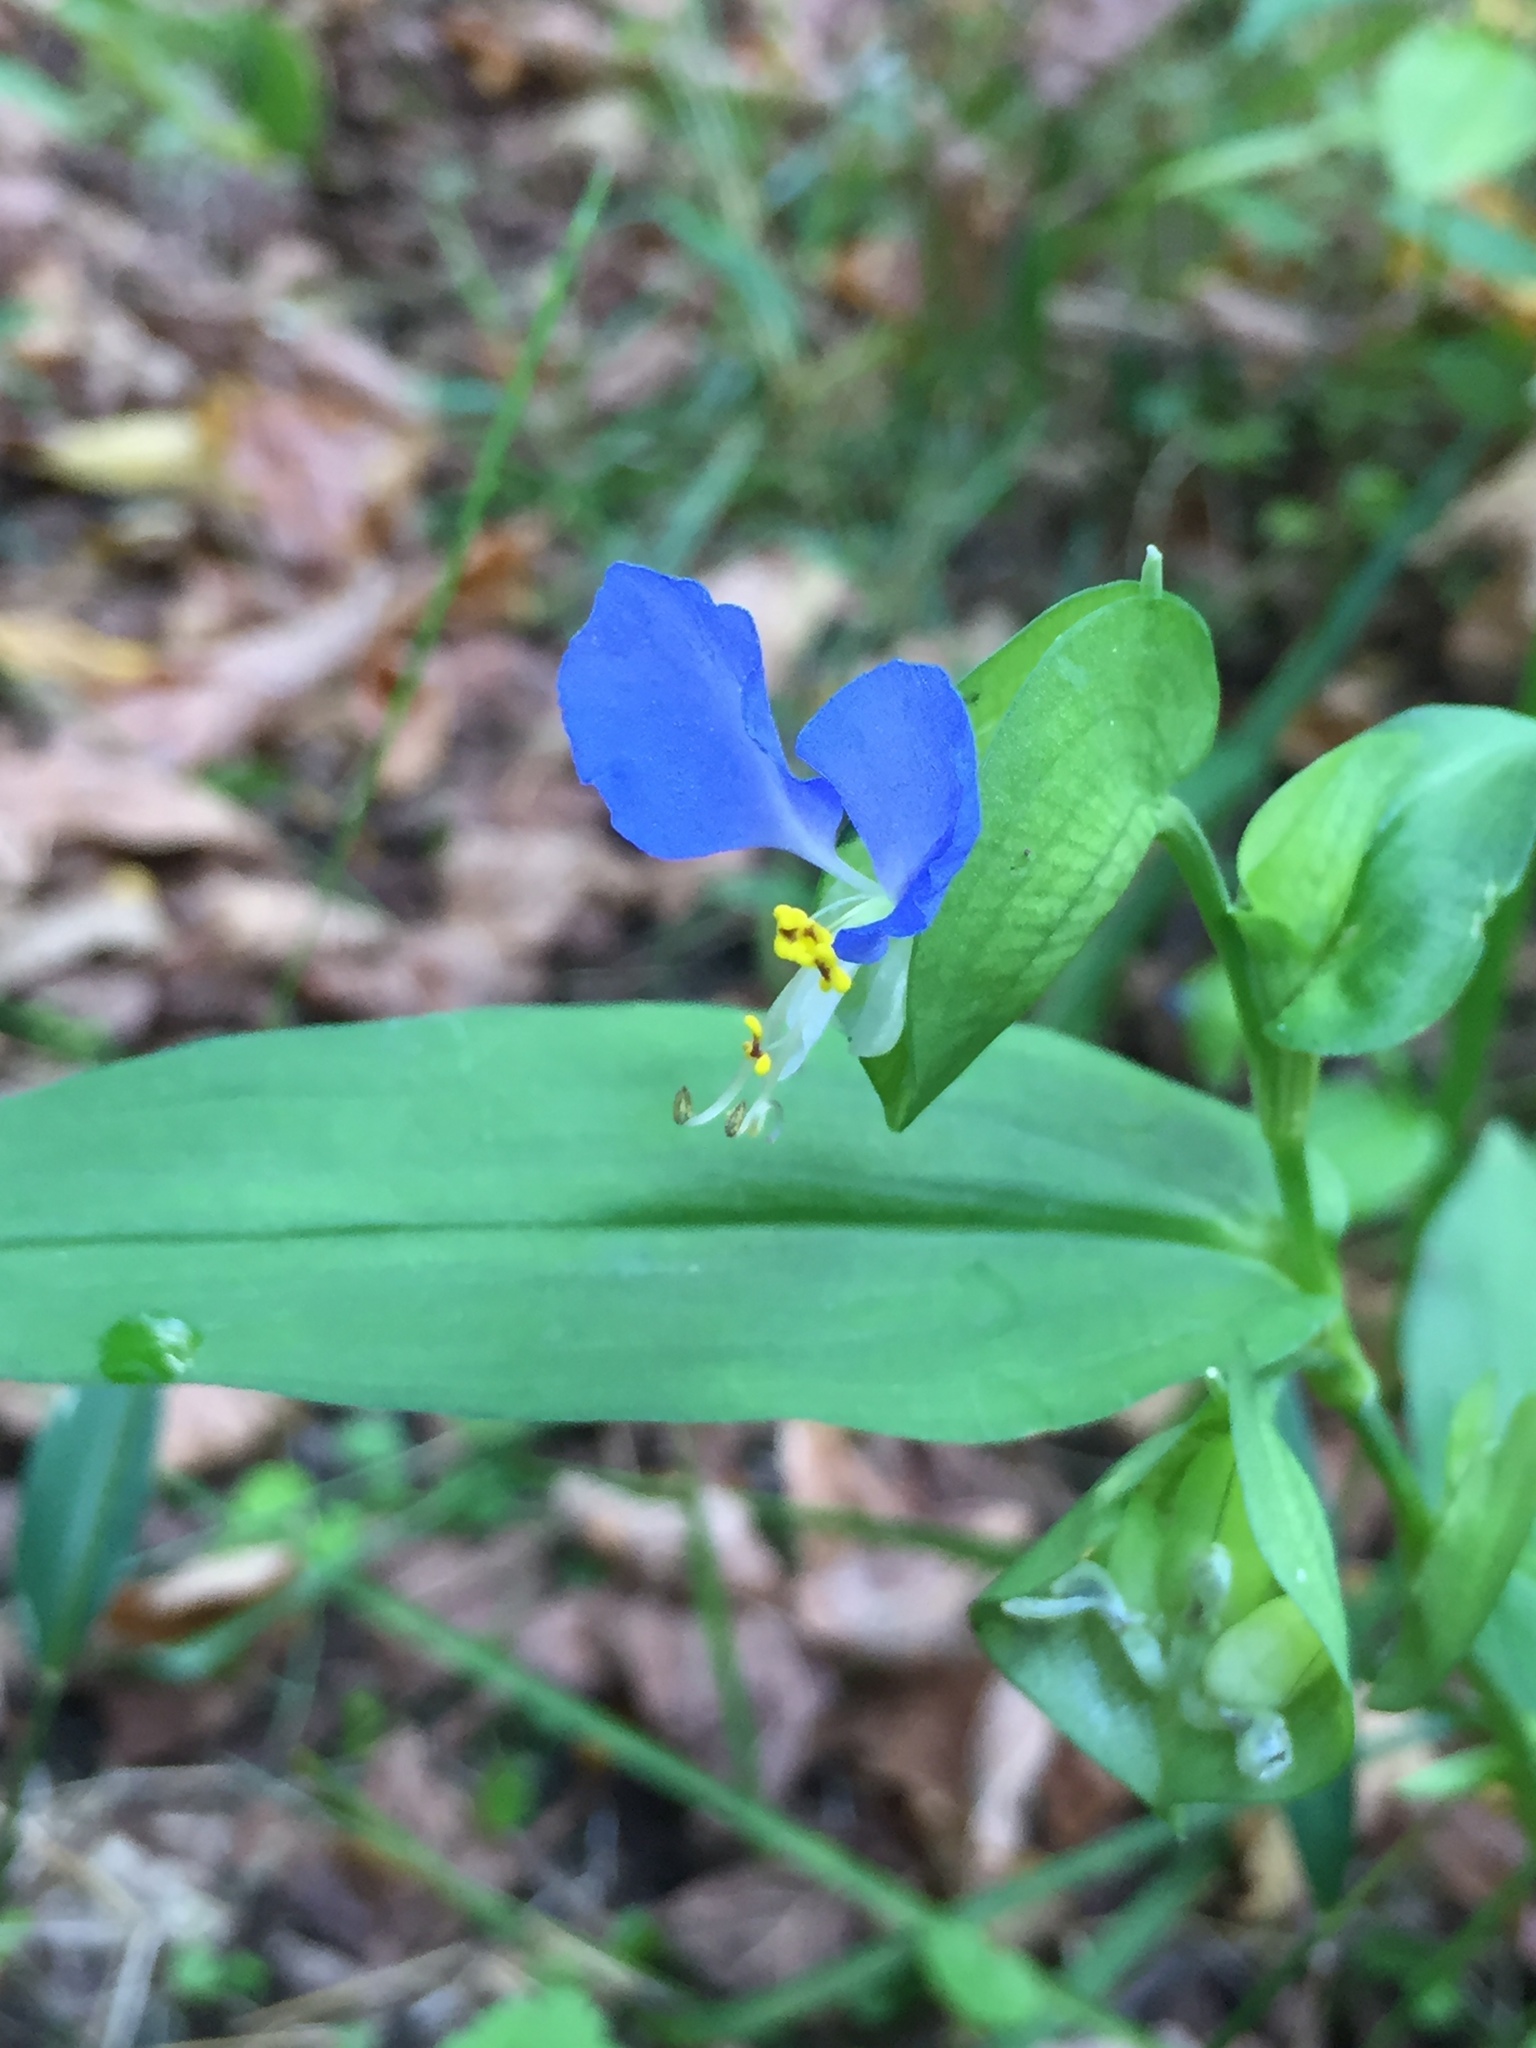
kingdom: Plantae
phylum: Tracheophyta
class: Liliopsida
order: Commelinales
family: Commelinaceae
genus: Commelina
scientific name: Commelina communis
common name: Asiatic dayflower
